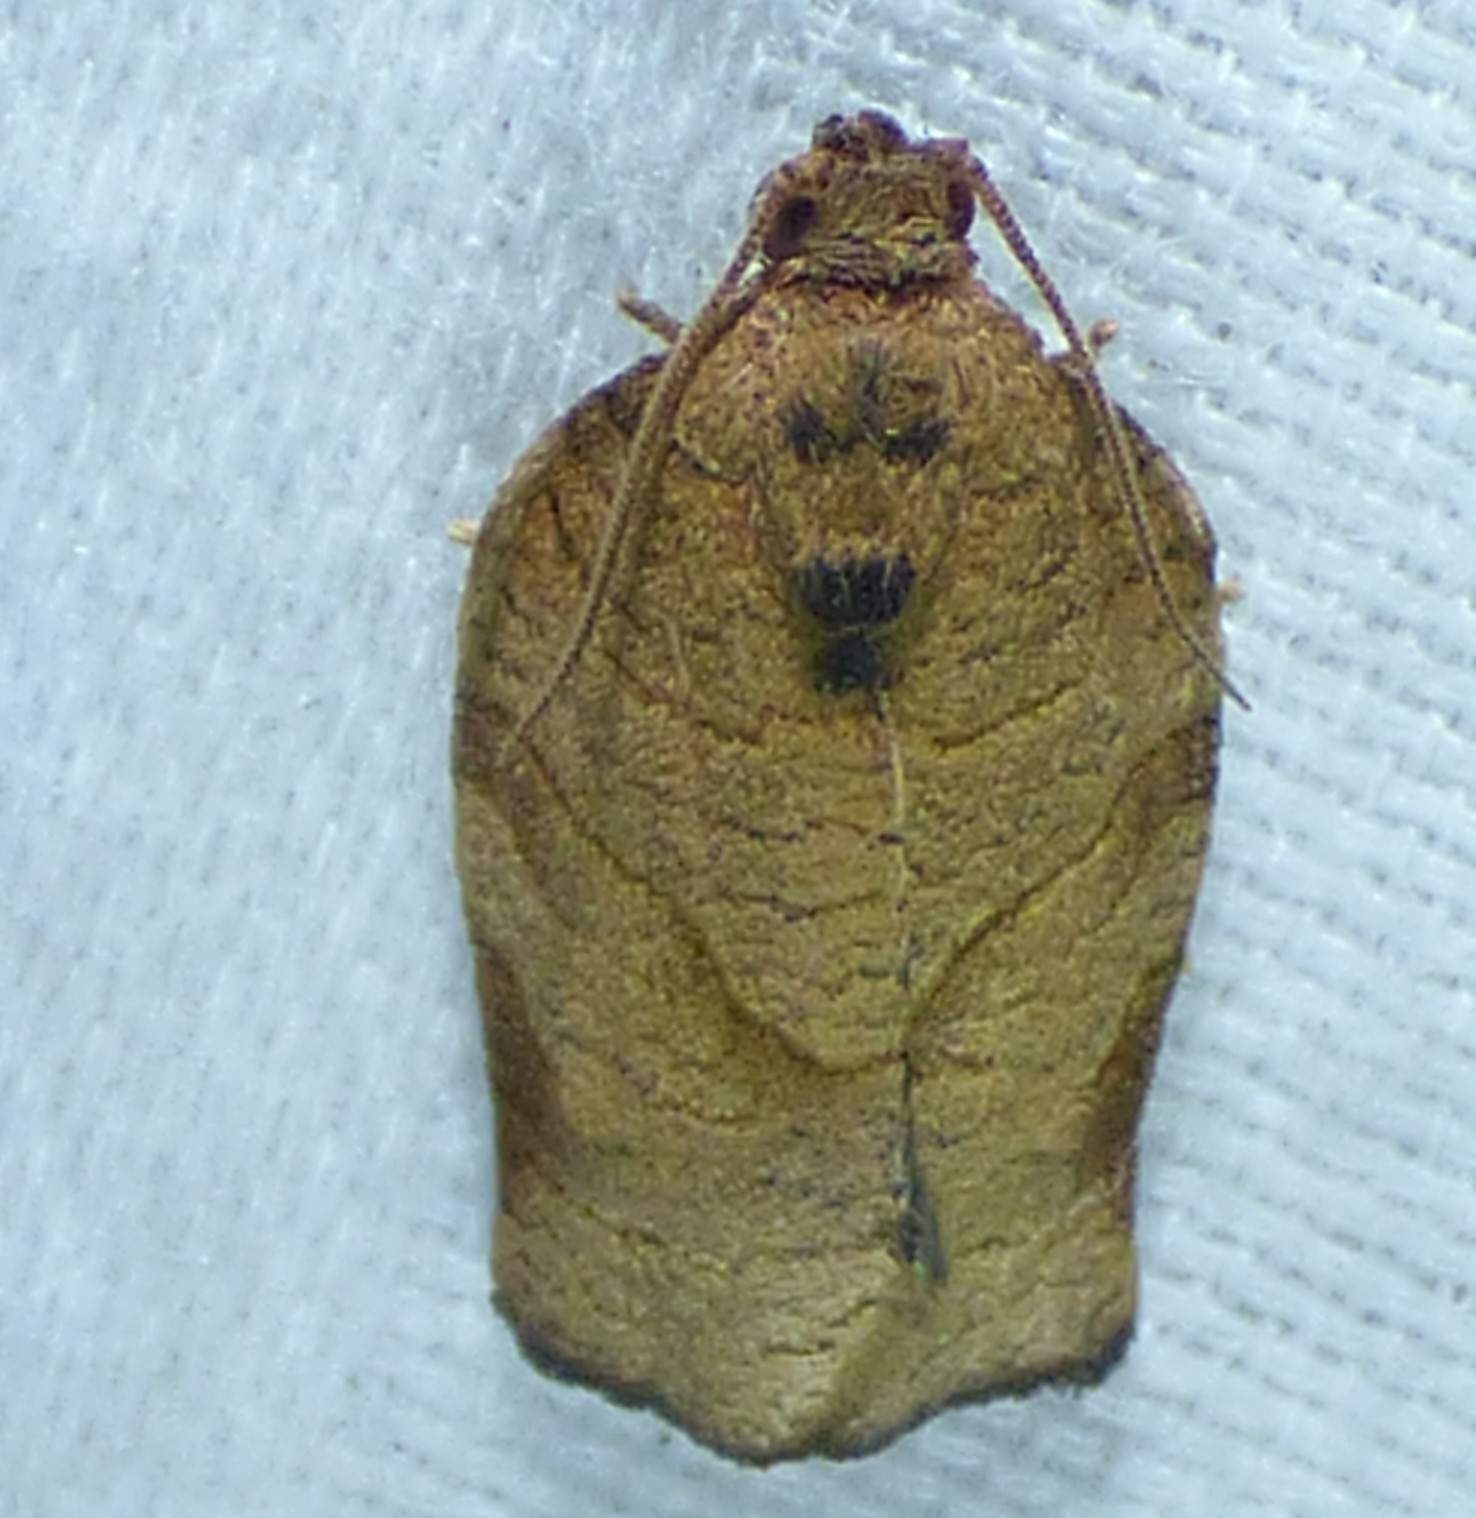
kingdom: Animalia
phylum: Arthropoda
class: Insecta
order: Lepidoptera
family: Tortricidae
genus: Choristoneura
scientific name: Choristoneura rosaceana
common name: Oblique-banded leafroller moth
